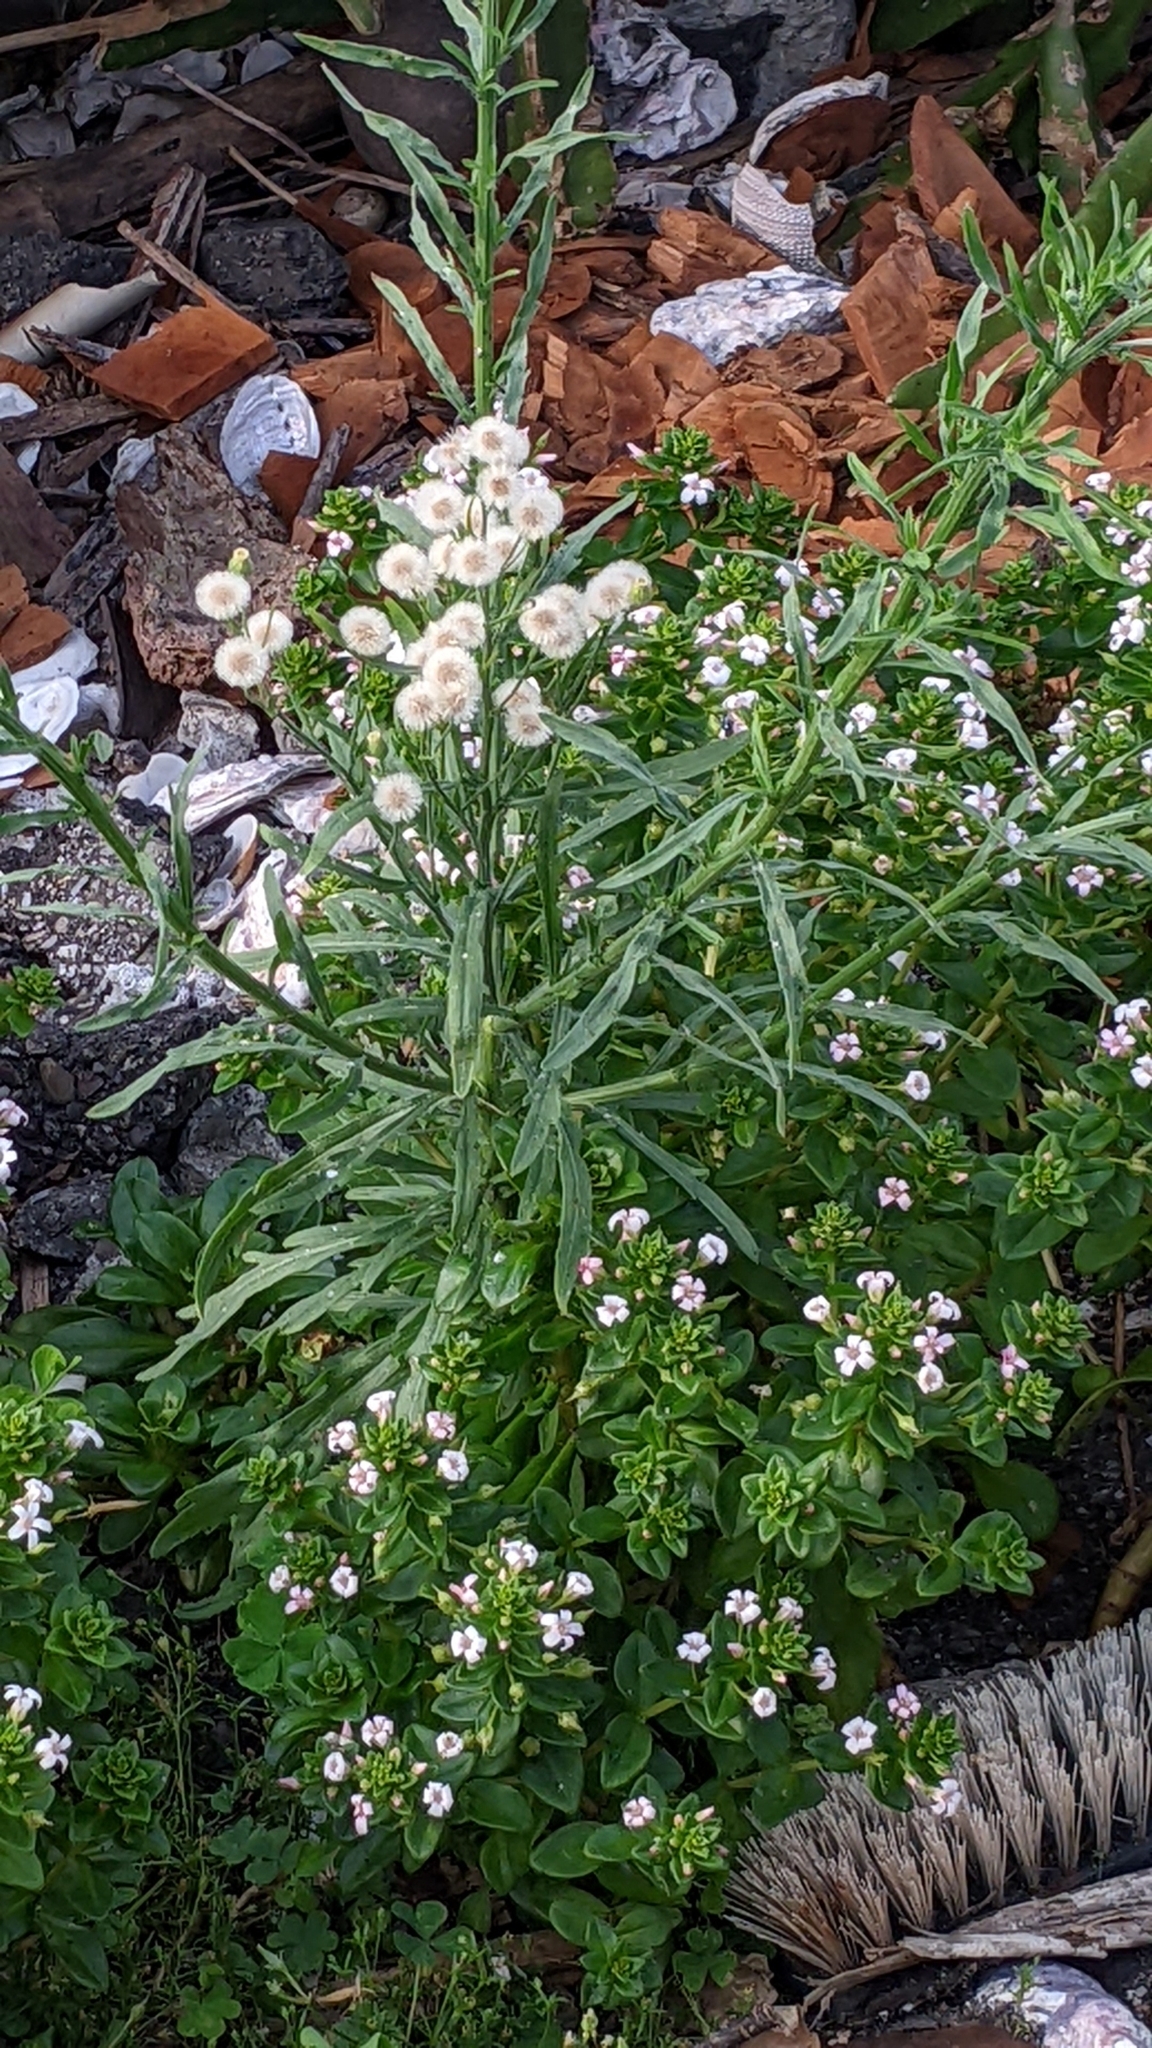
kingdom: Plantae
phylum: Tracheophyta
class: Magnoliopsida
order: Asterales
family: Asteraceae
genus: Erigeron
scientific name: Erigeron bonariensis
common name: Argentine fleabane
